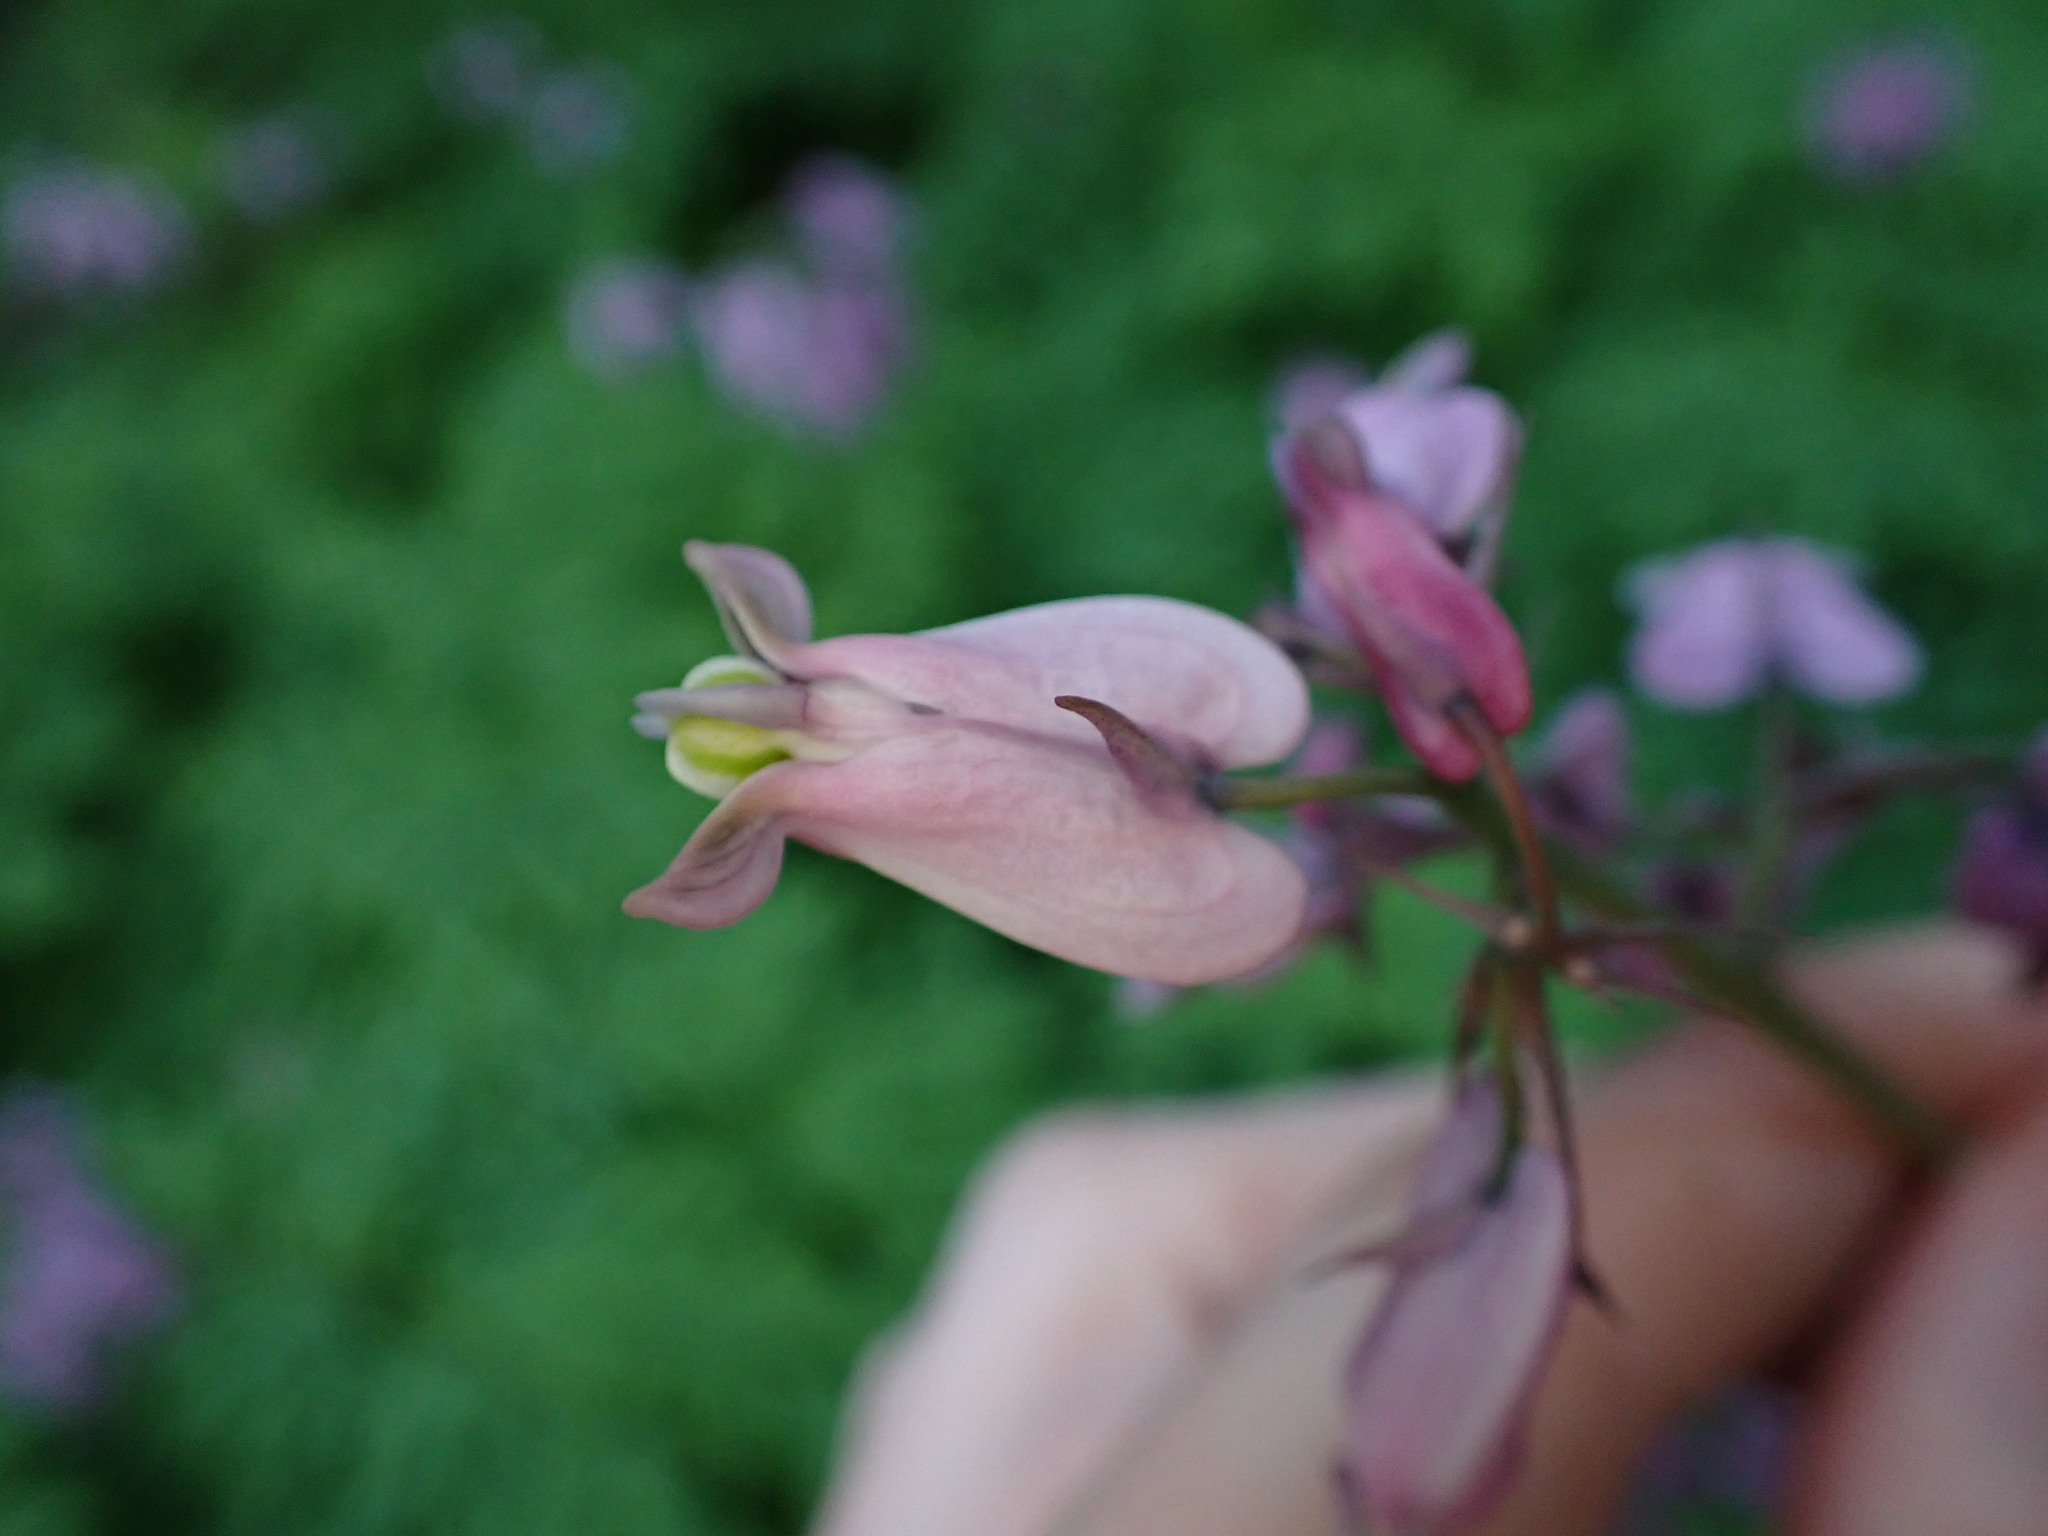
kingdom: Plantae
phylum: Tracheophyta
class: Magnoliopsida
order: Ranunculales
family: Papaveraceae
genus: Dicentra
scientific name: Dicentra formosa
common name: Bleeding-heart
